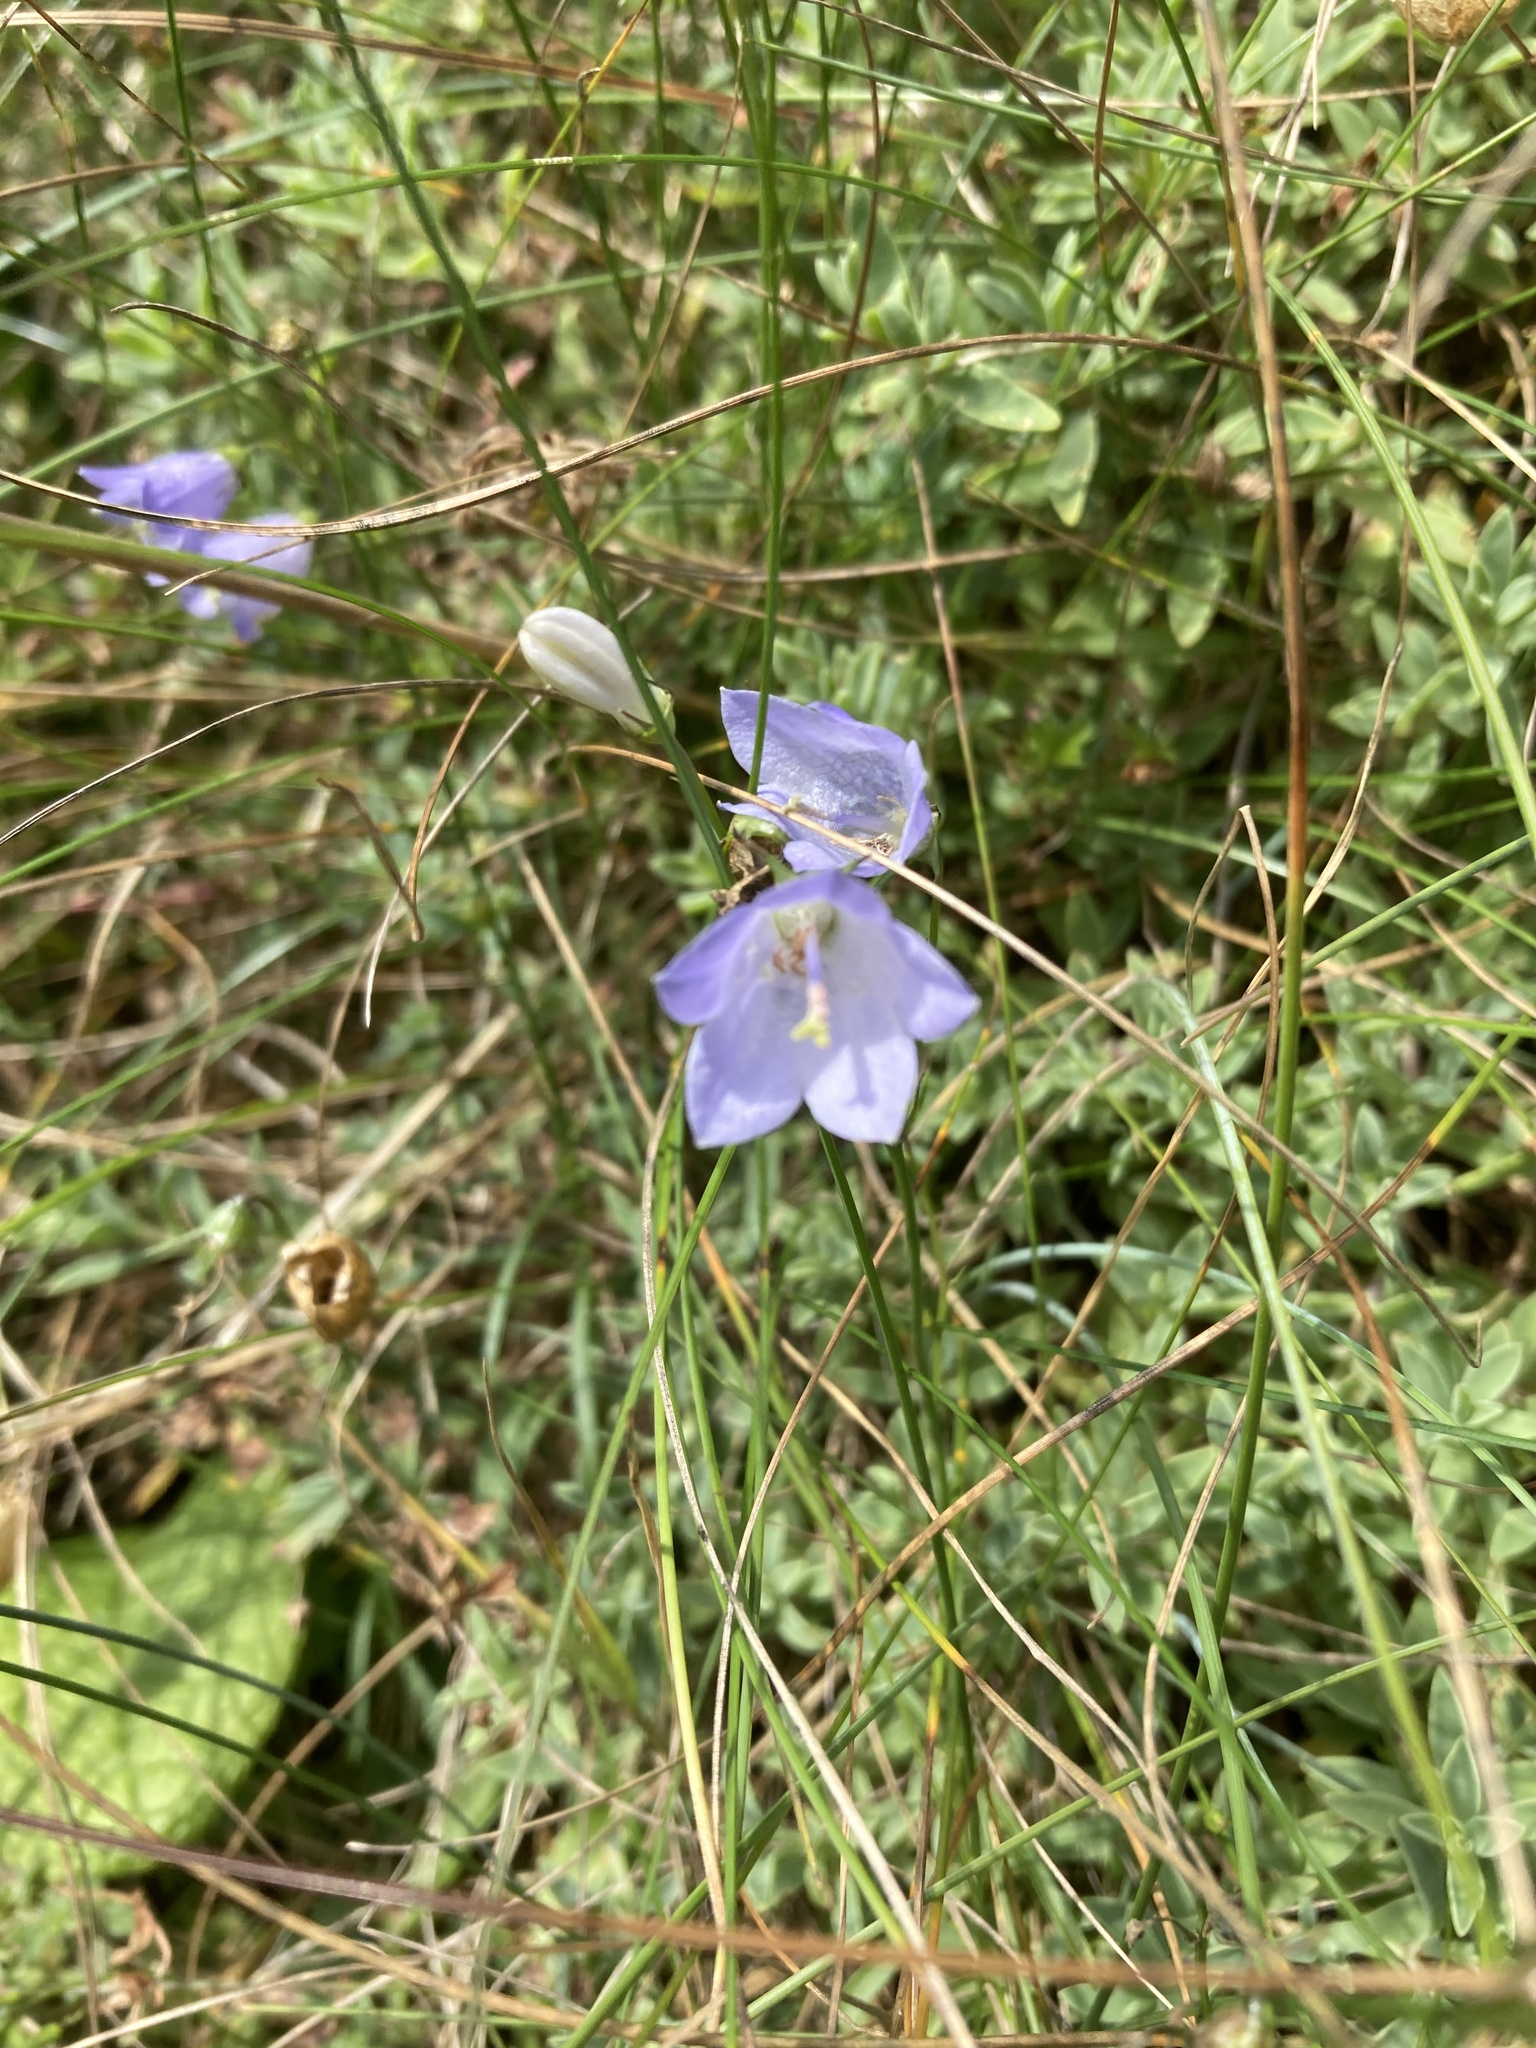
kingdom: Plantae
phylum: Tracheophyta
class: Magnoliopsida
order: Asterales
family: Campanulaceae
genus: Campanula
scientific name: Campanula rotundifolia
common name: Harebell
